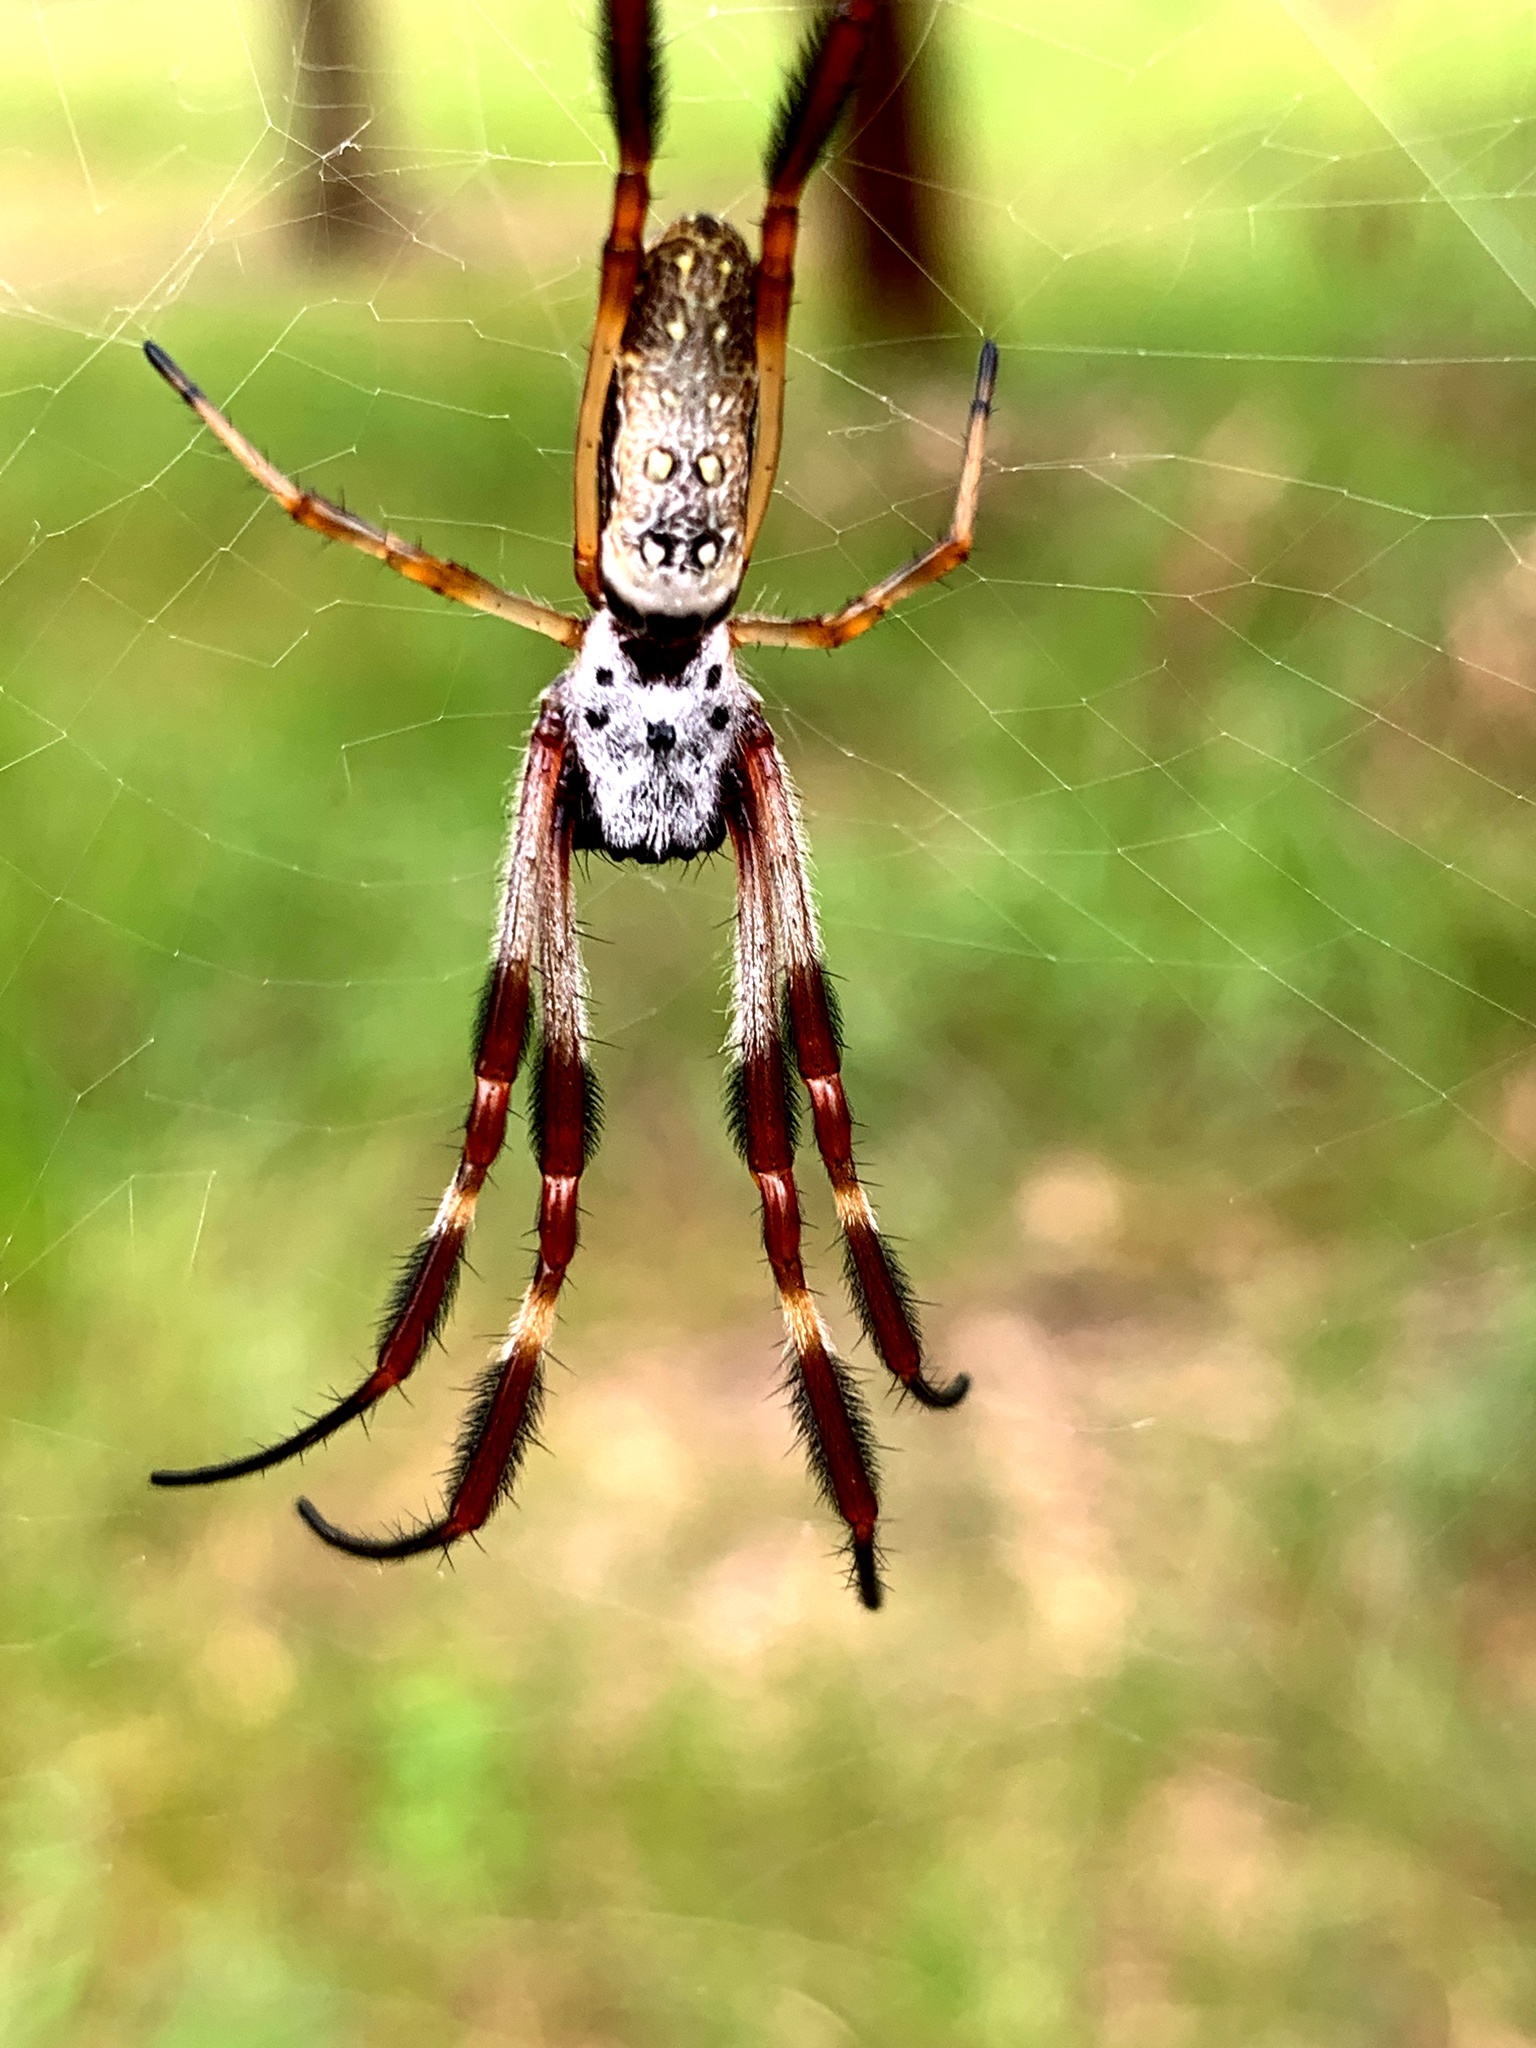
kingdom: Animalia
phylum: Arthropoda
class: Arachnida
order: Araneae
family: Araneidae
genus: Trichonephila
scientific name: Trichonephila edulis
